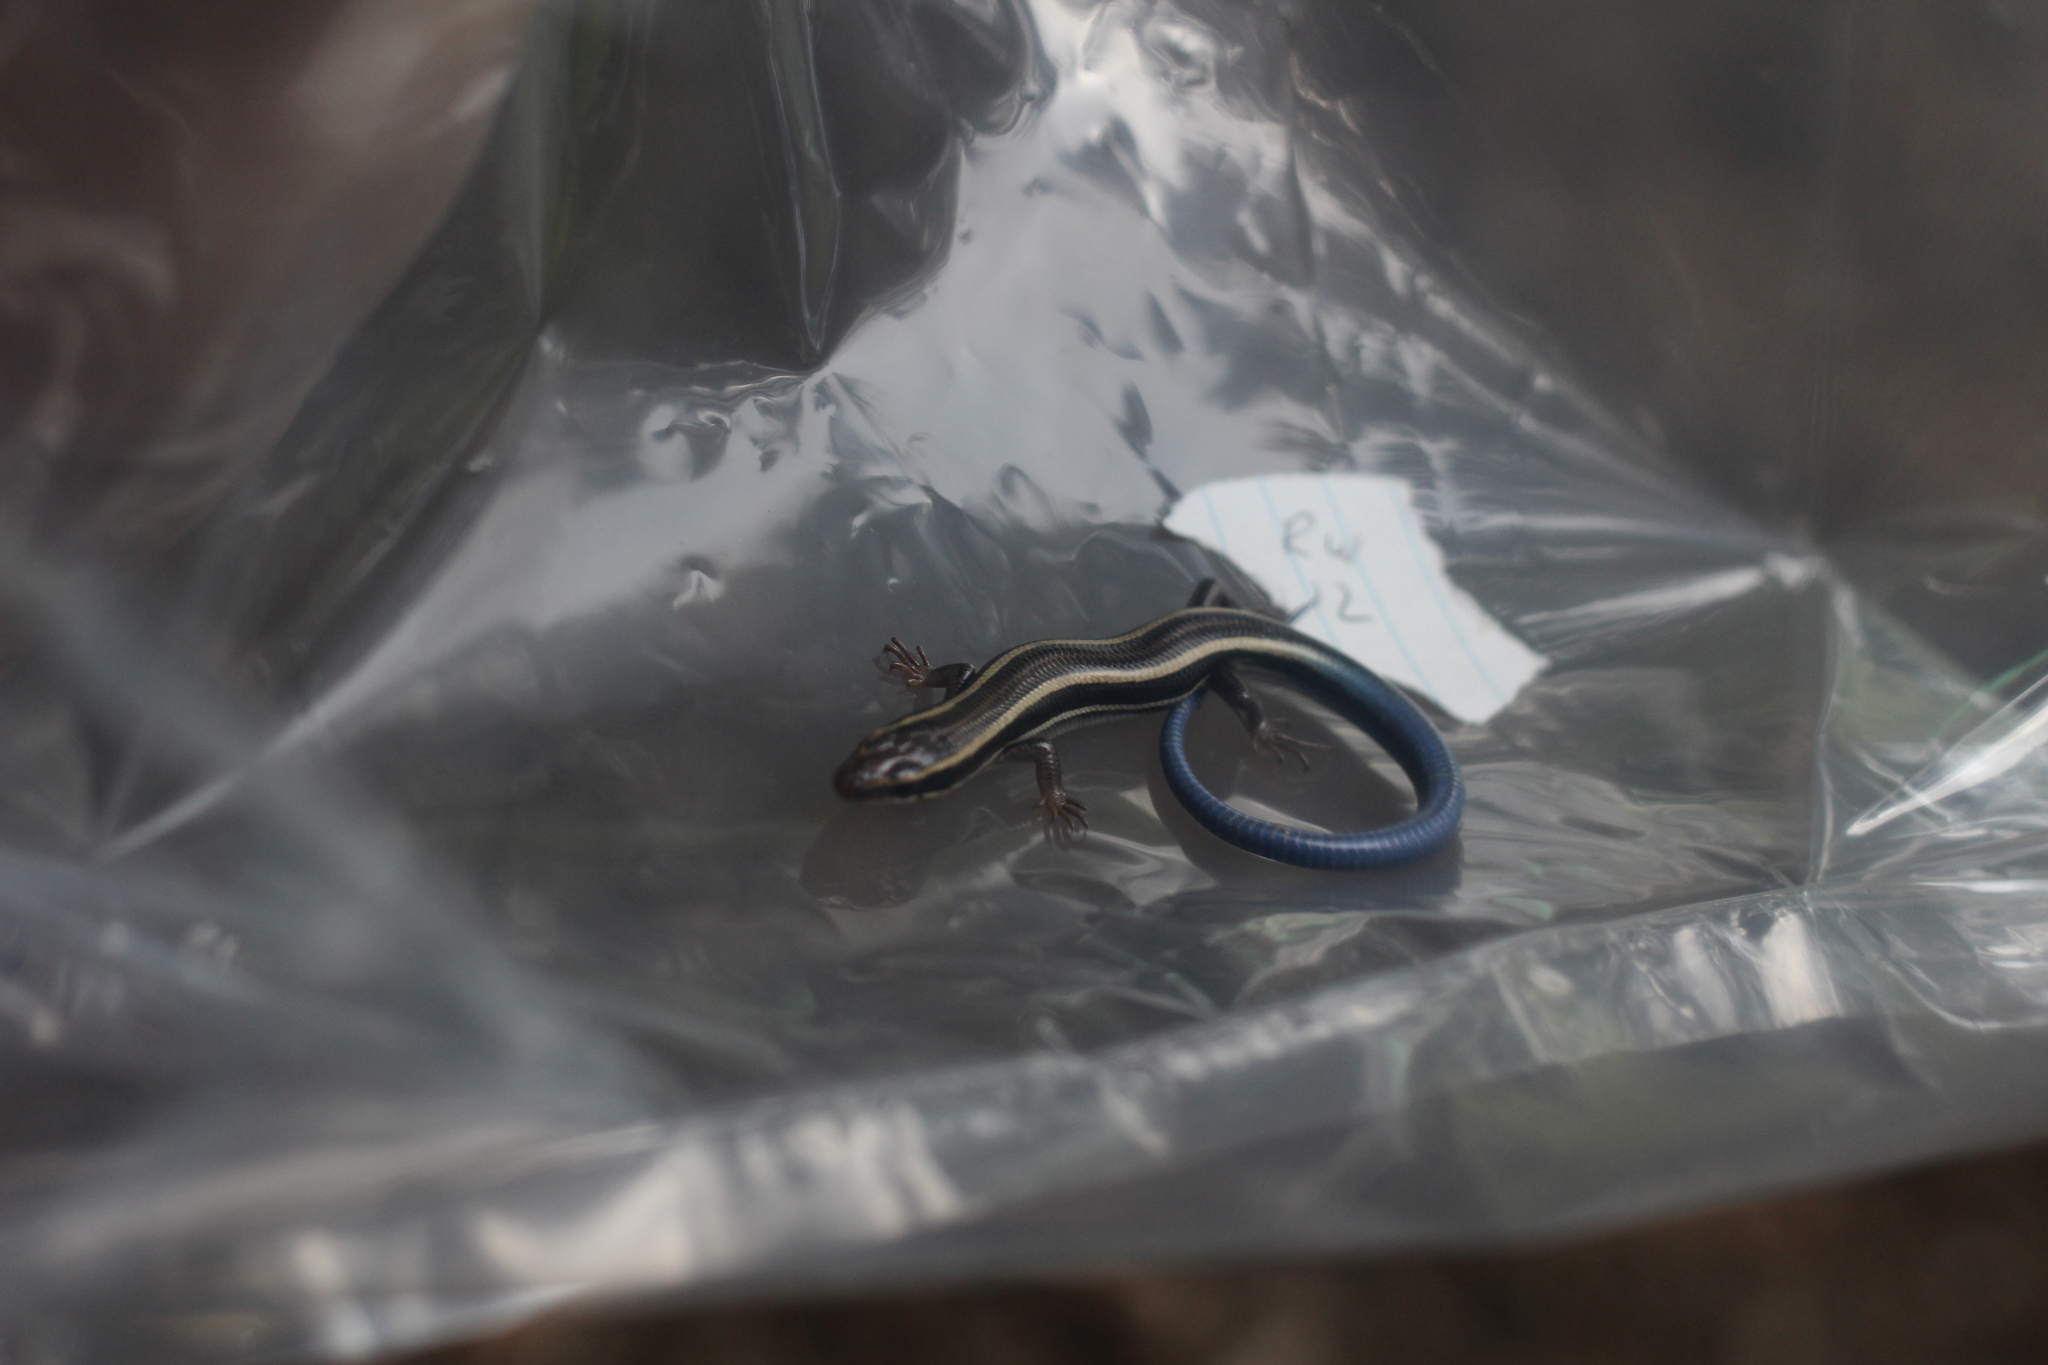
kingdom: Animalia
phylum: Chordata
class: Squamata
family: Scincidae
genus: Plestiodon
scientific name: Plestiodon skiltonianus
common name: Coronado island skink [interparietalis]
